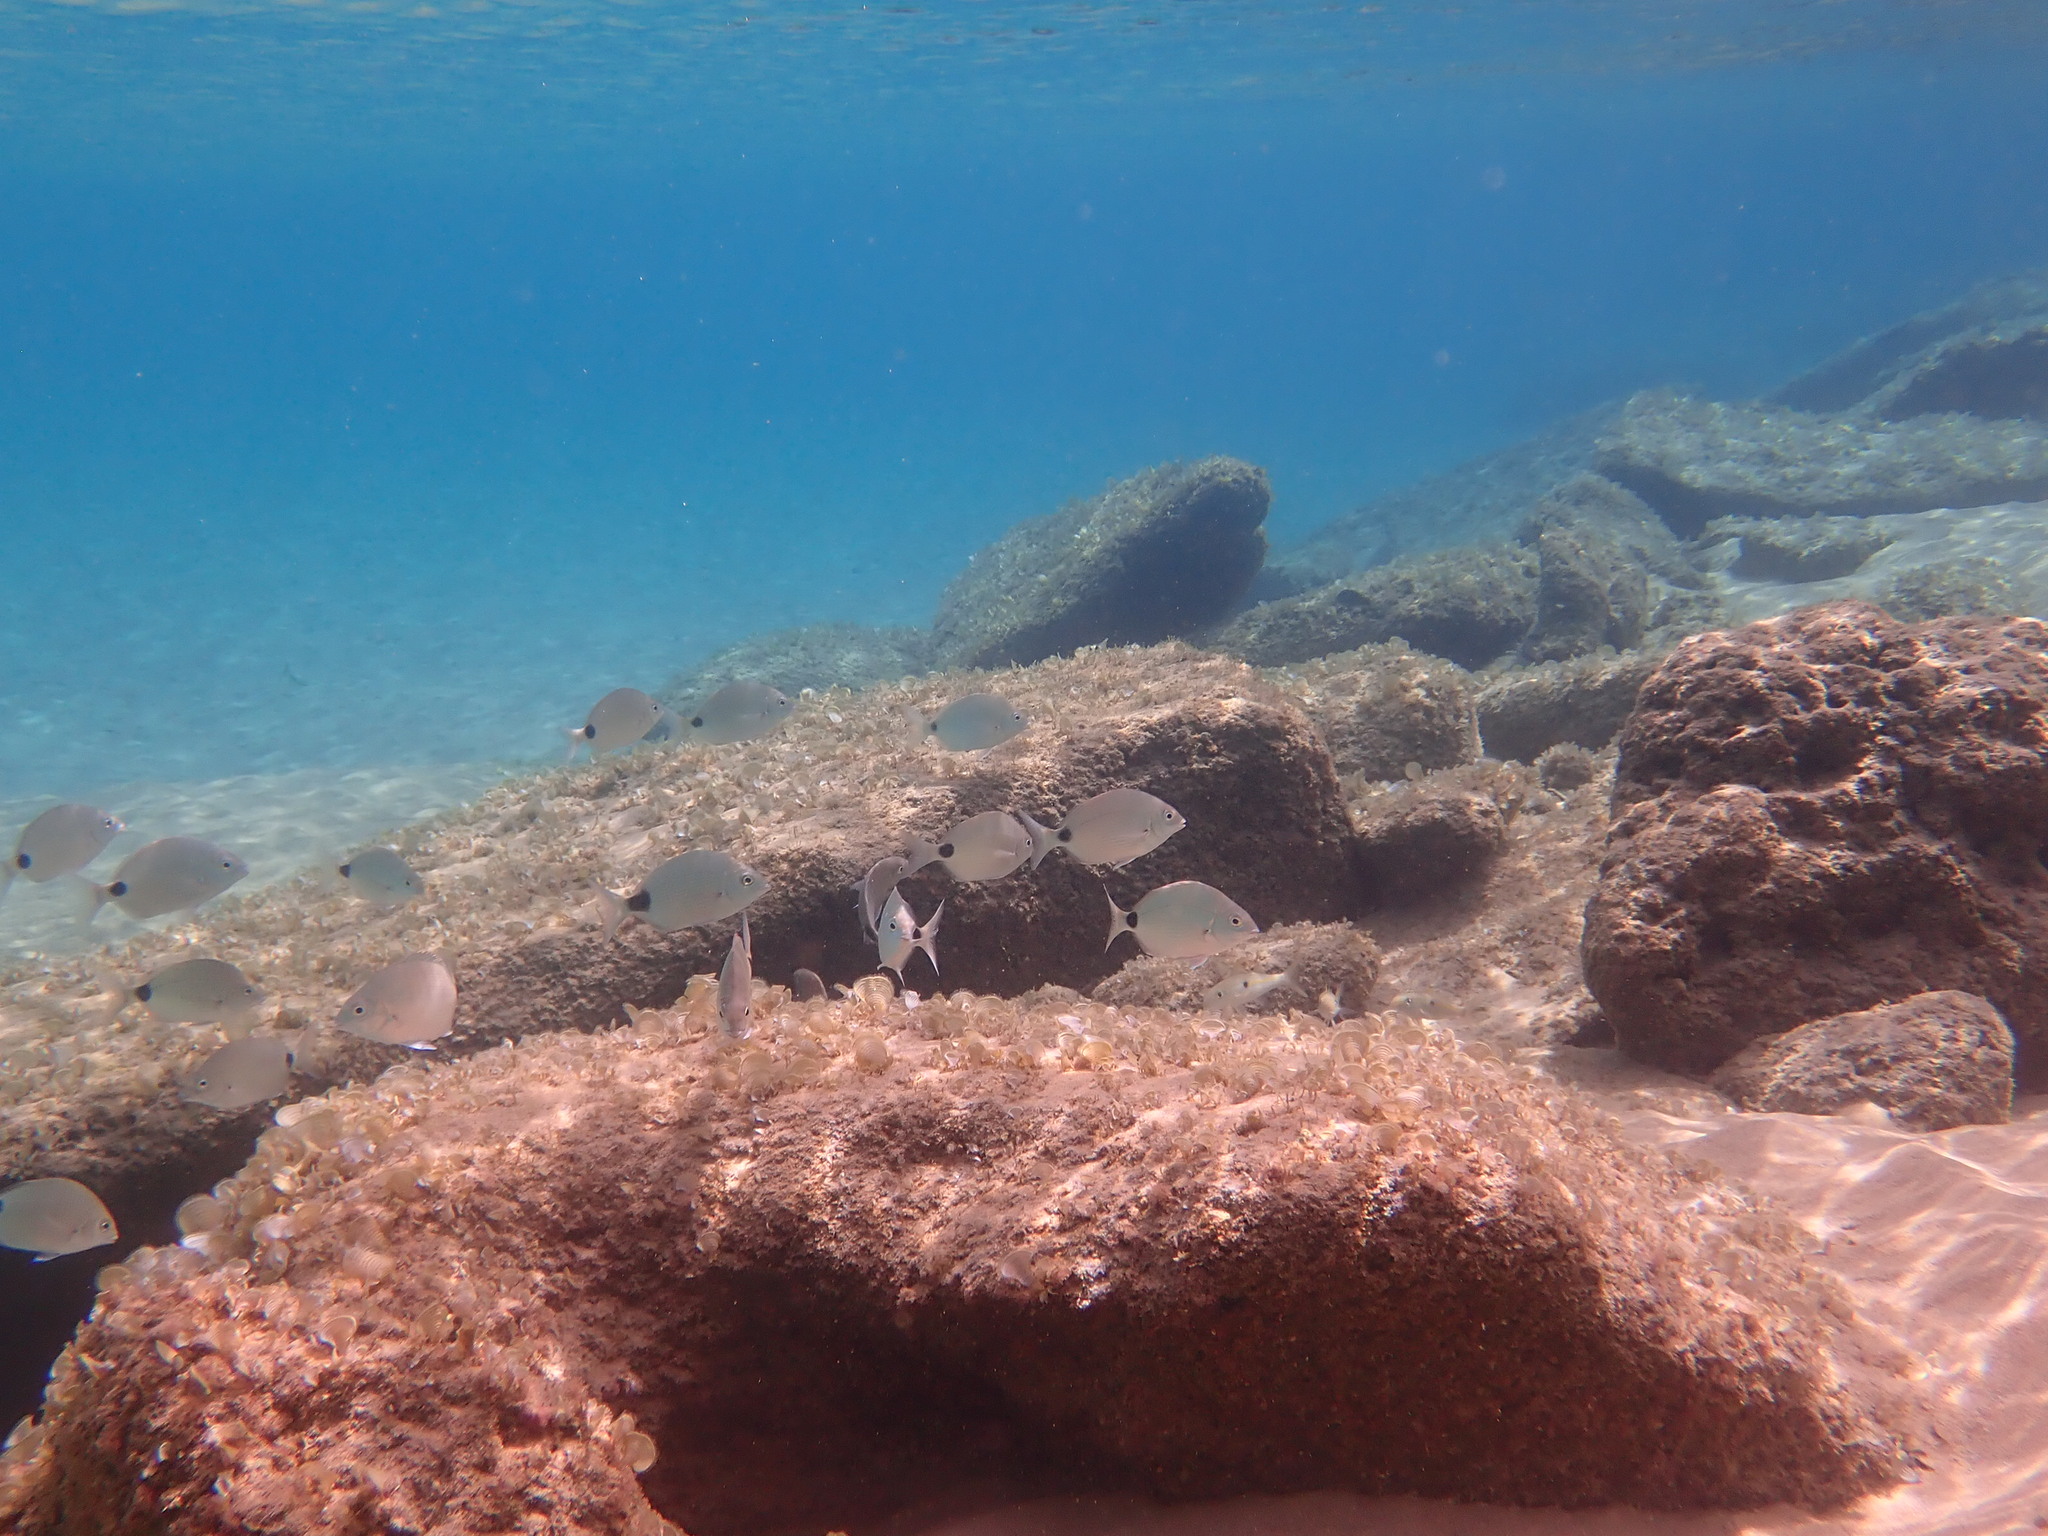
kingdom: Animalia
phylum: Chordata
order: Perciformes
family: Sparidae
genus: Diplodus
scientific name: Diplodus capensis
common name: Blacktail
